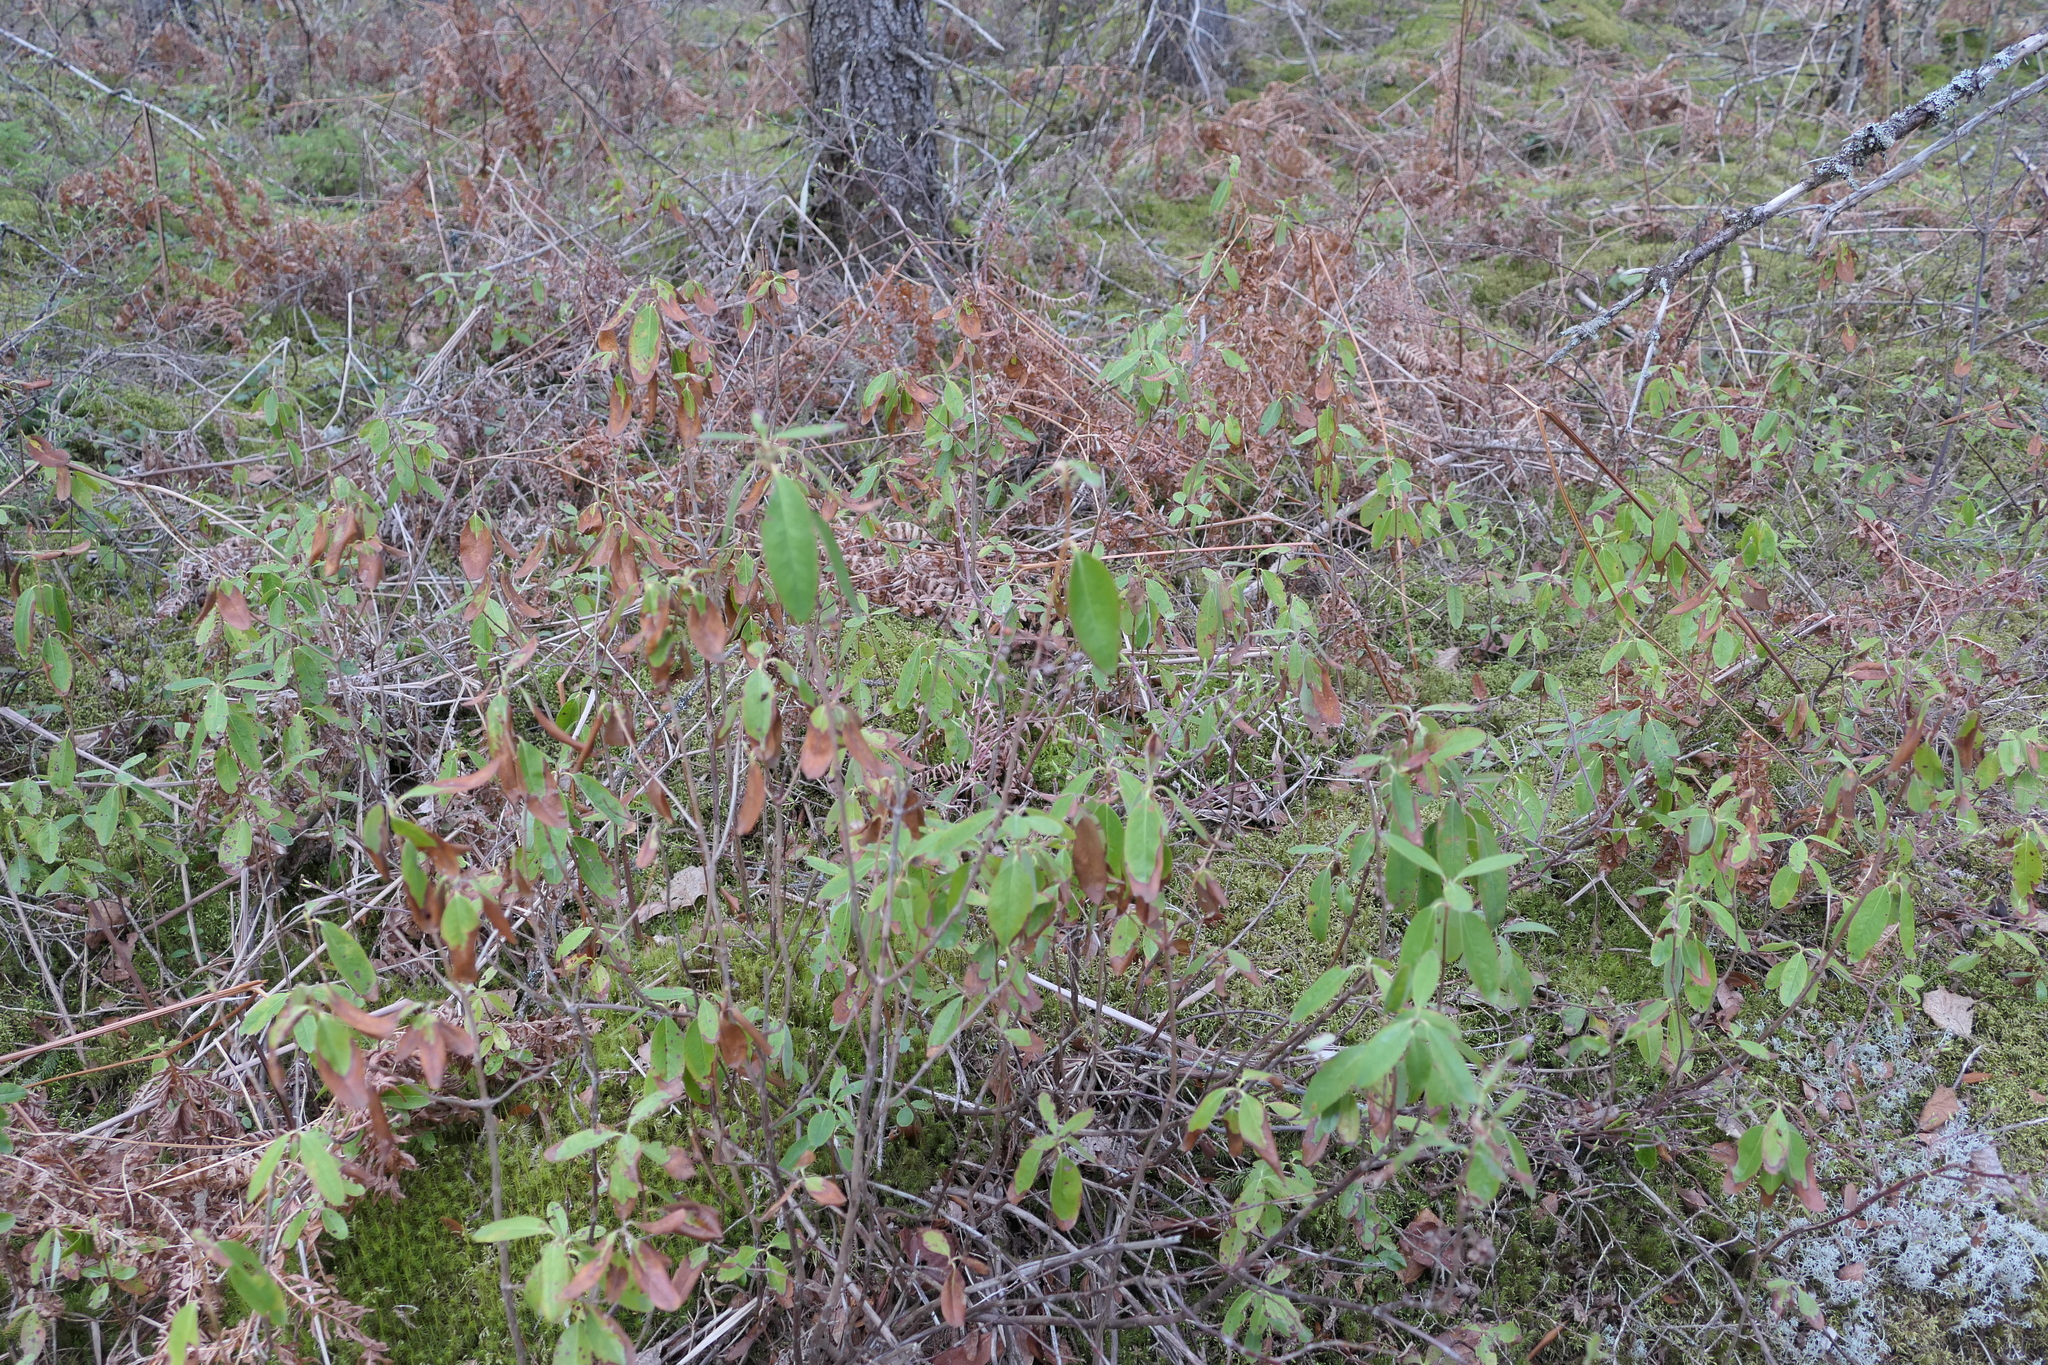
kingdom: Plantae
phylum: Tracheophyta
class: Magnoliopsida
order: Ericales
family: Ericaceae
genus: Kalmia
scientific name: Kalmia angustifolia
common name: Sheep-laurel
